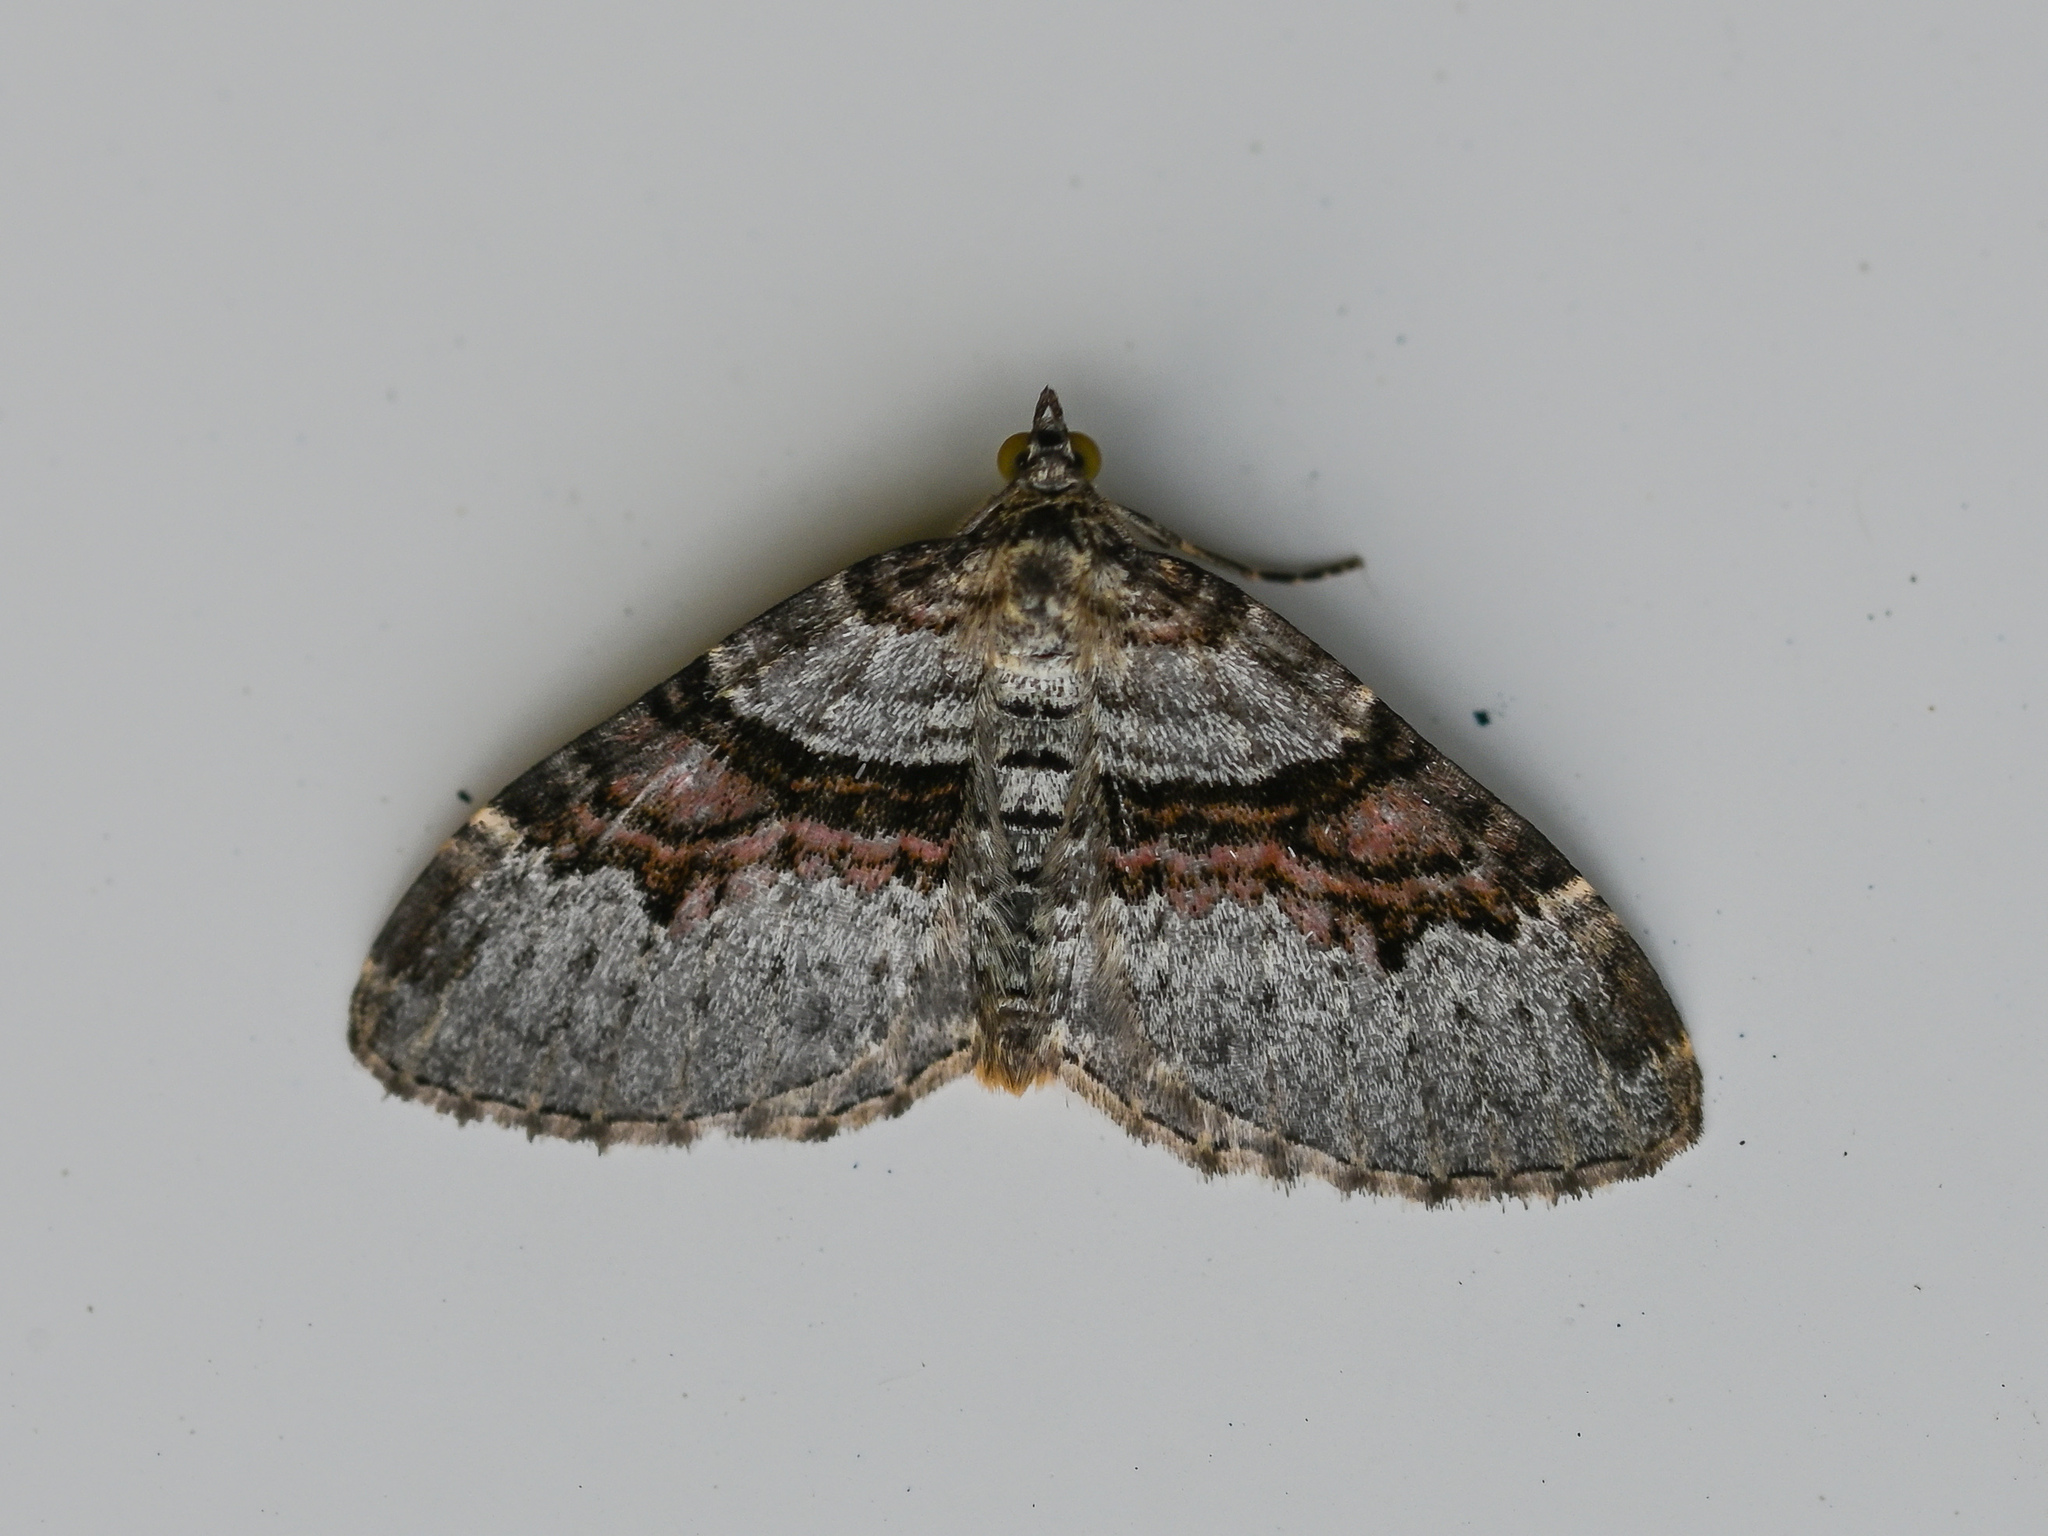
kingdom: Animalia
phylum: Arthropoda
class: Insecta
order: Lepidoptera
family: Geometridae
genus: Xanthorhoe
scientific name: Xanthorhoe designata
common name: Flame carpet
